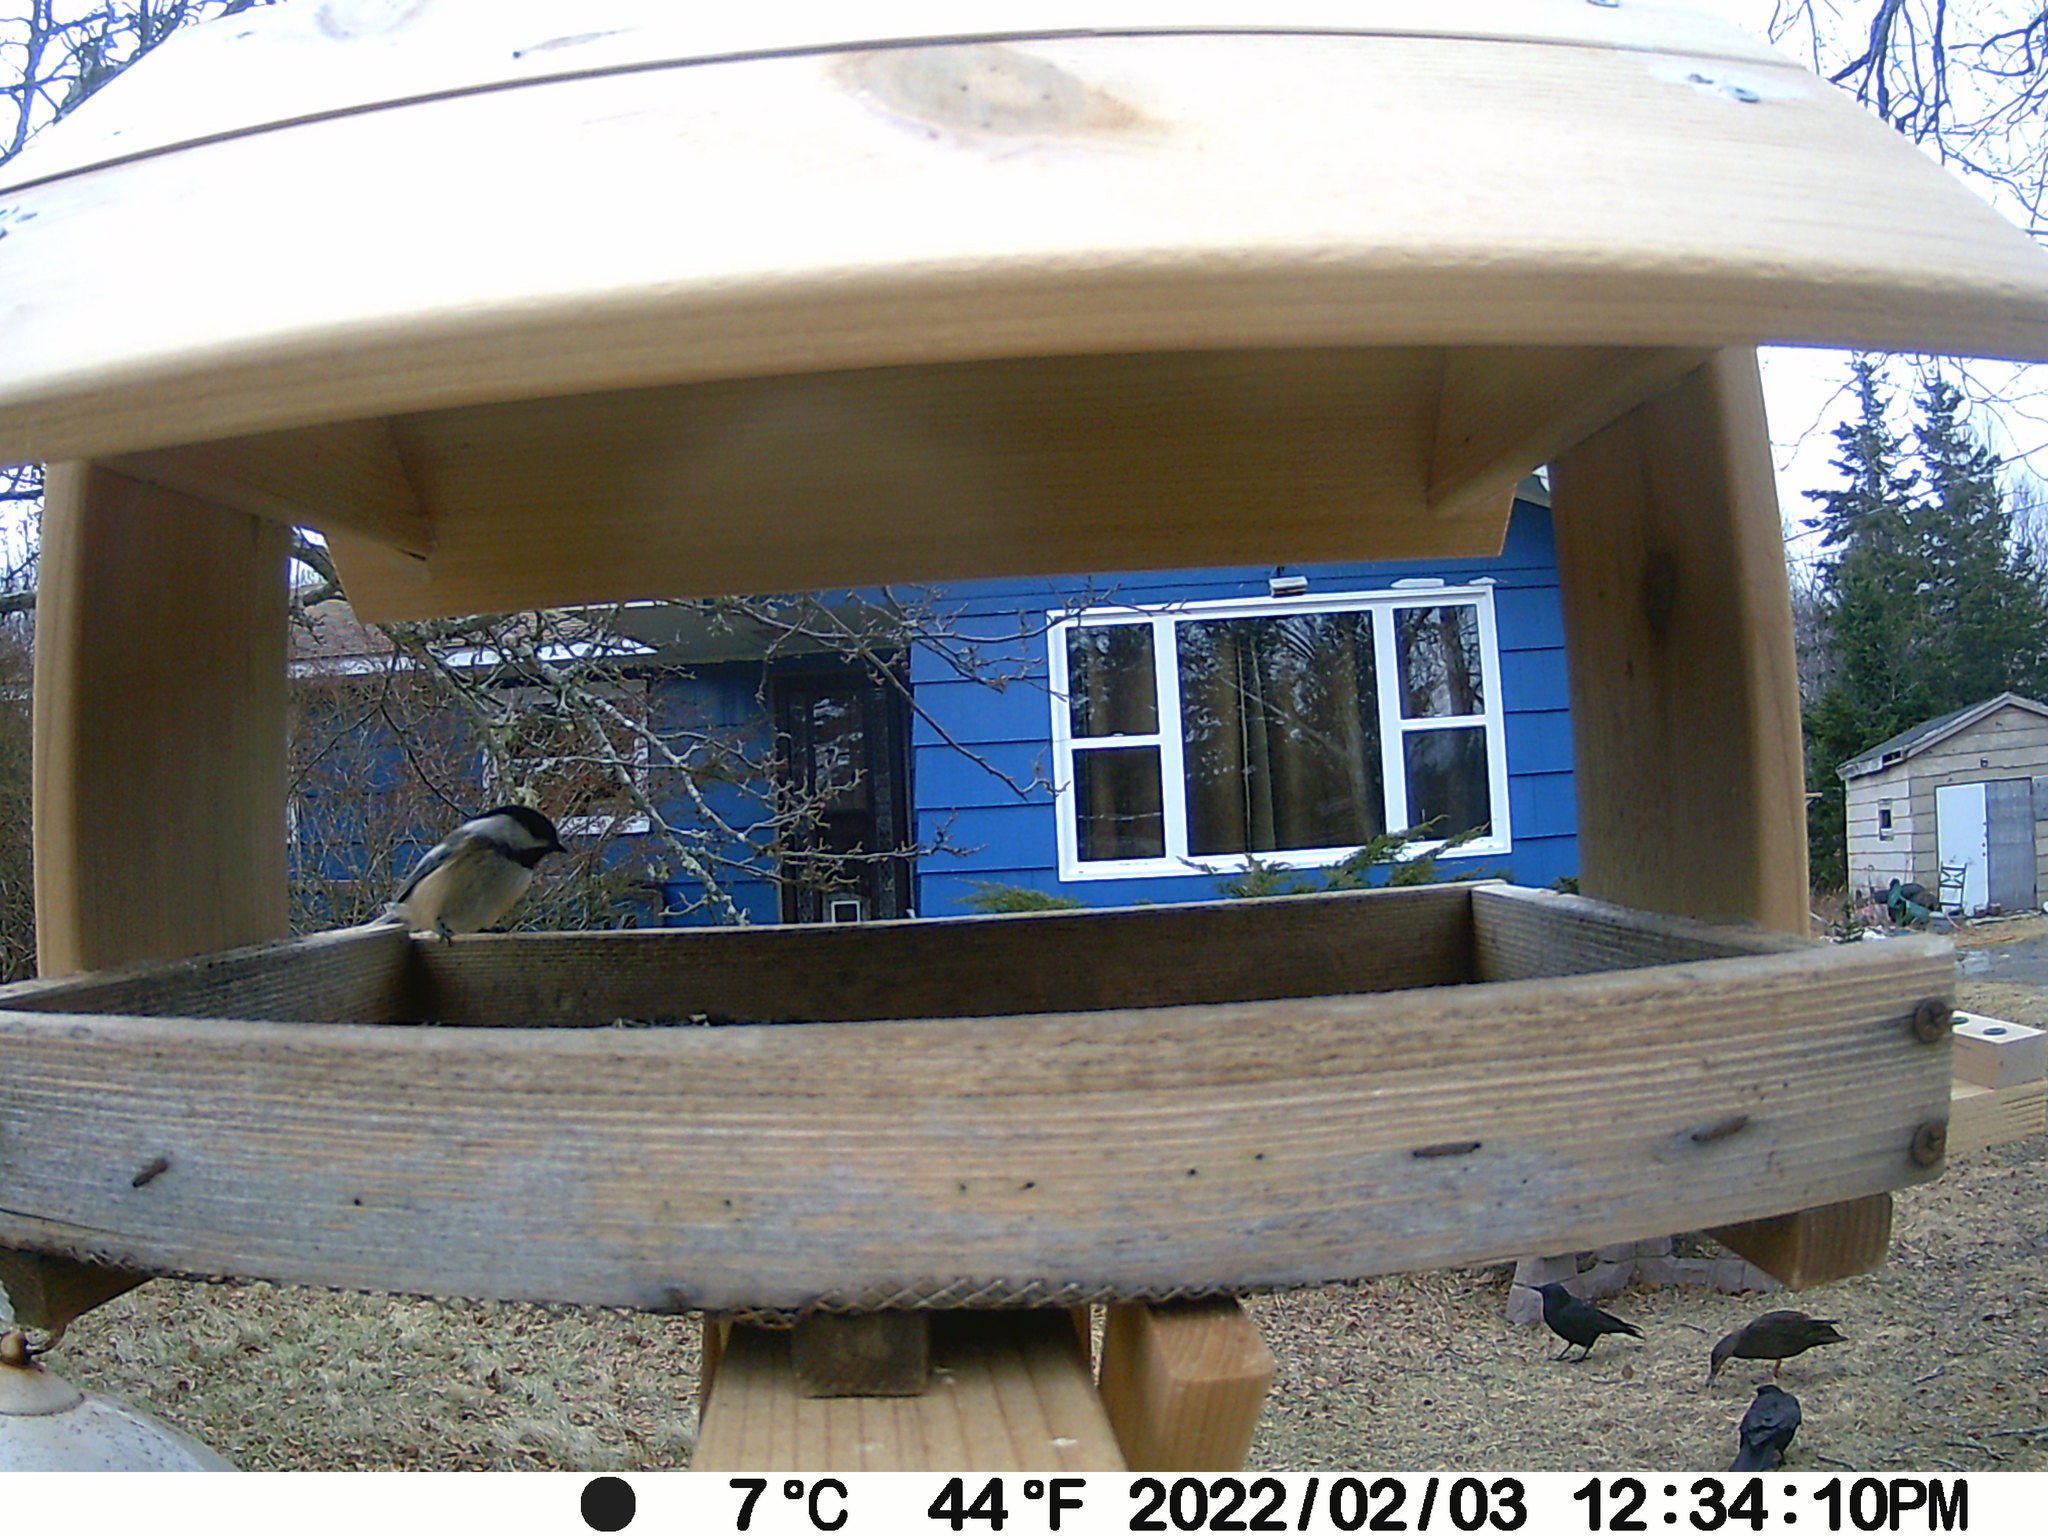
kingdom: Animalia
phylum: Chordata
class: Aves
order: Anseriformes
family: Anatidae
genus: Anas
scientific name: Anas rubripes
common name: American black duck
